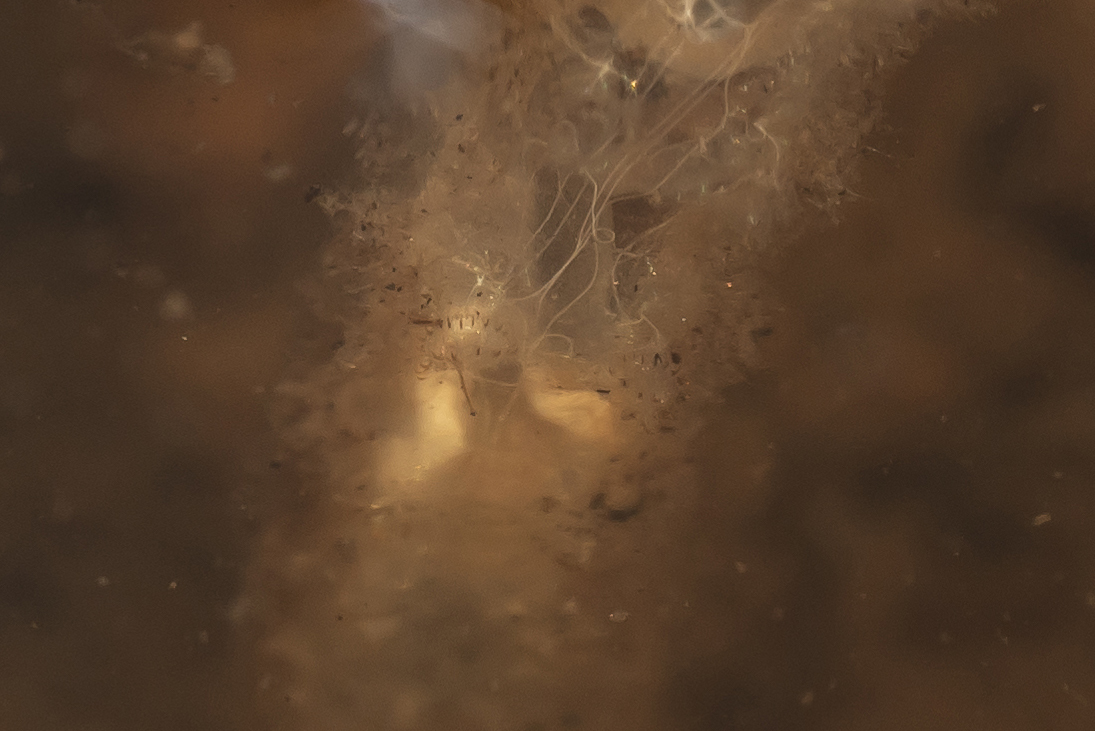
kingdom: Animalia
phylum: Arthropoda
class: Insecta
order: Diptera
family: Syrphidae
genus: Myathropa
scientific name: Myathropa florea
